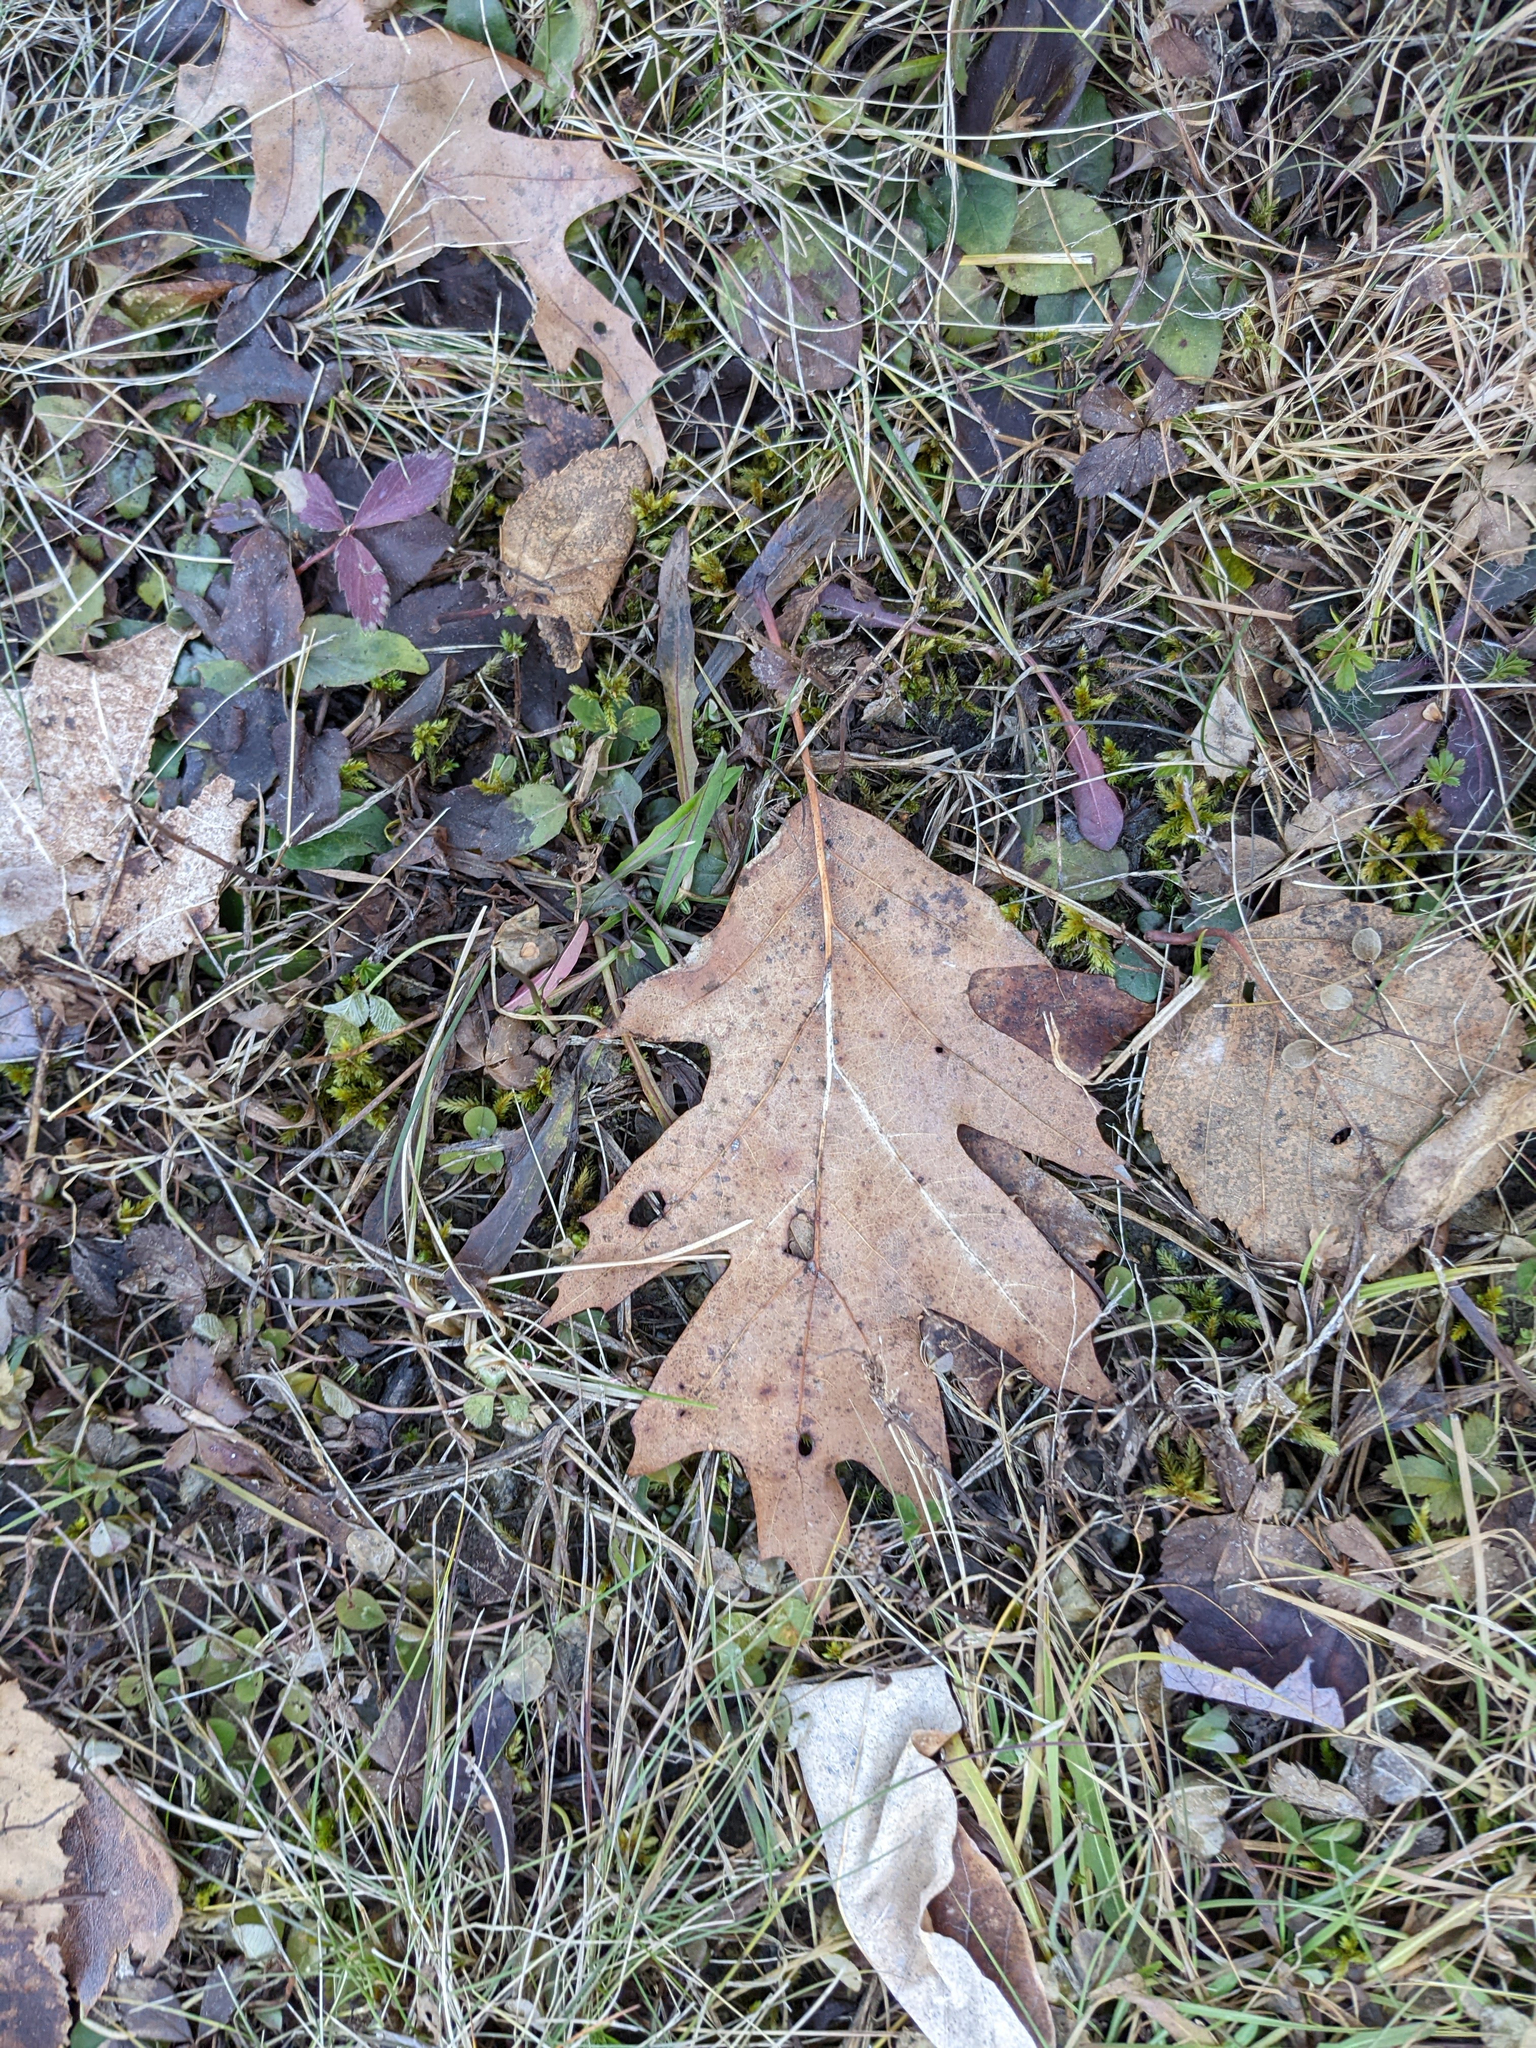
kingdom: Plantae
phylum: Tracheophyta
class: Magnoliopsida
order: Fagales
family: Fagaceae
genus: Quercus
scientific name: Quercus rubra
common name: Red oak
